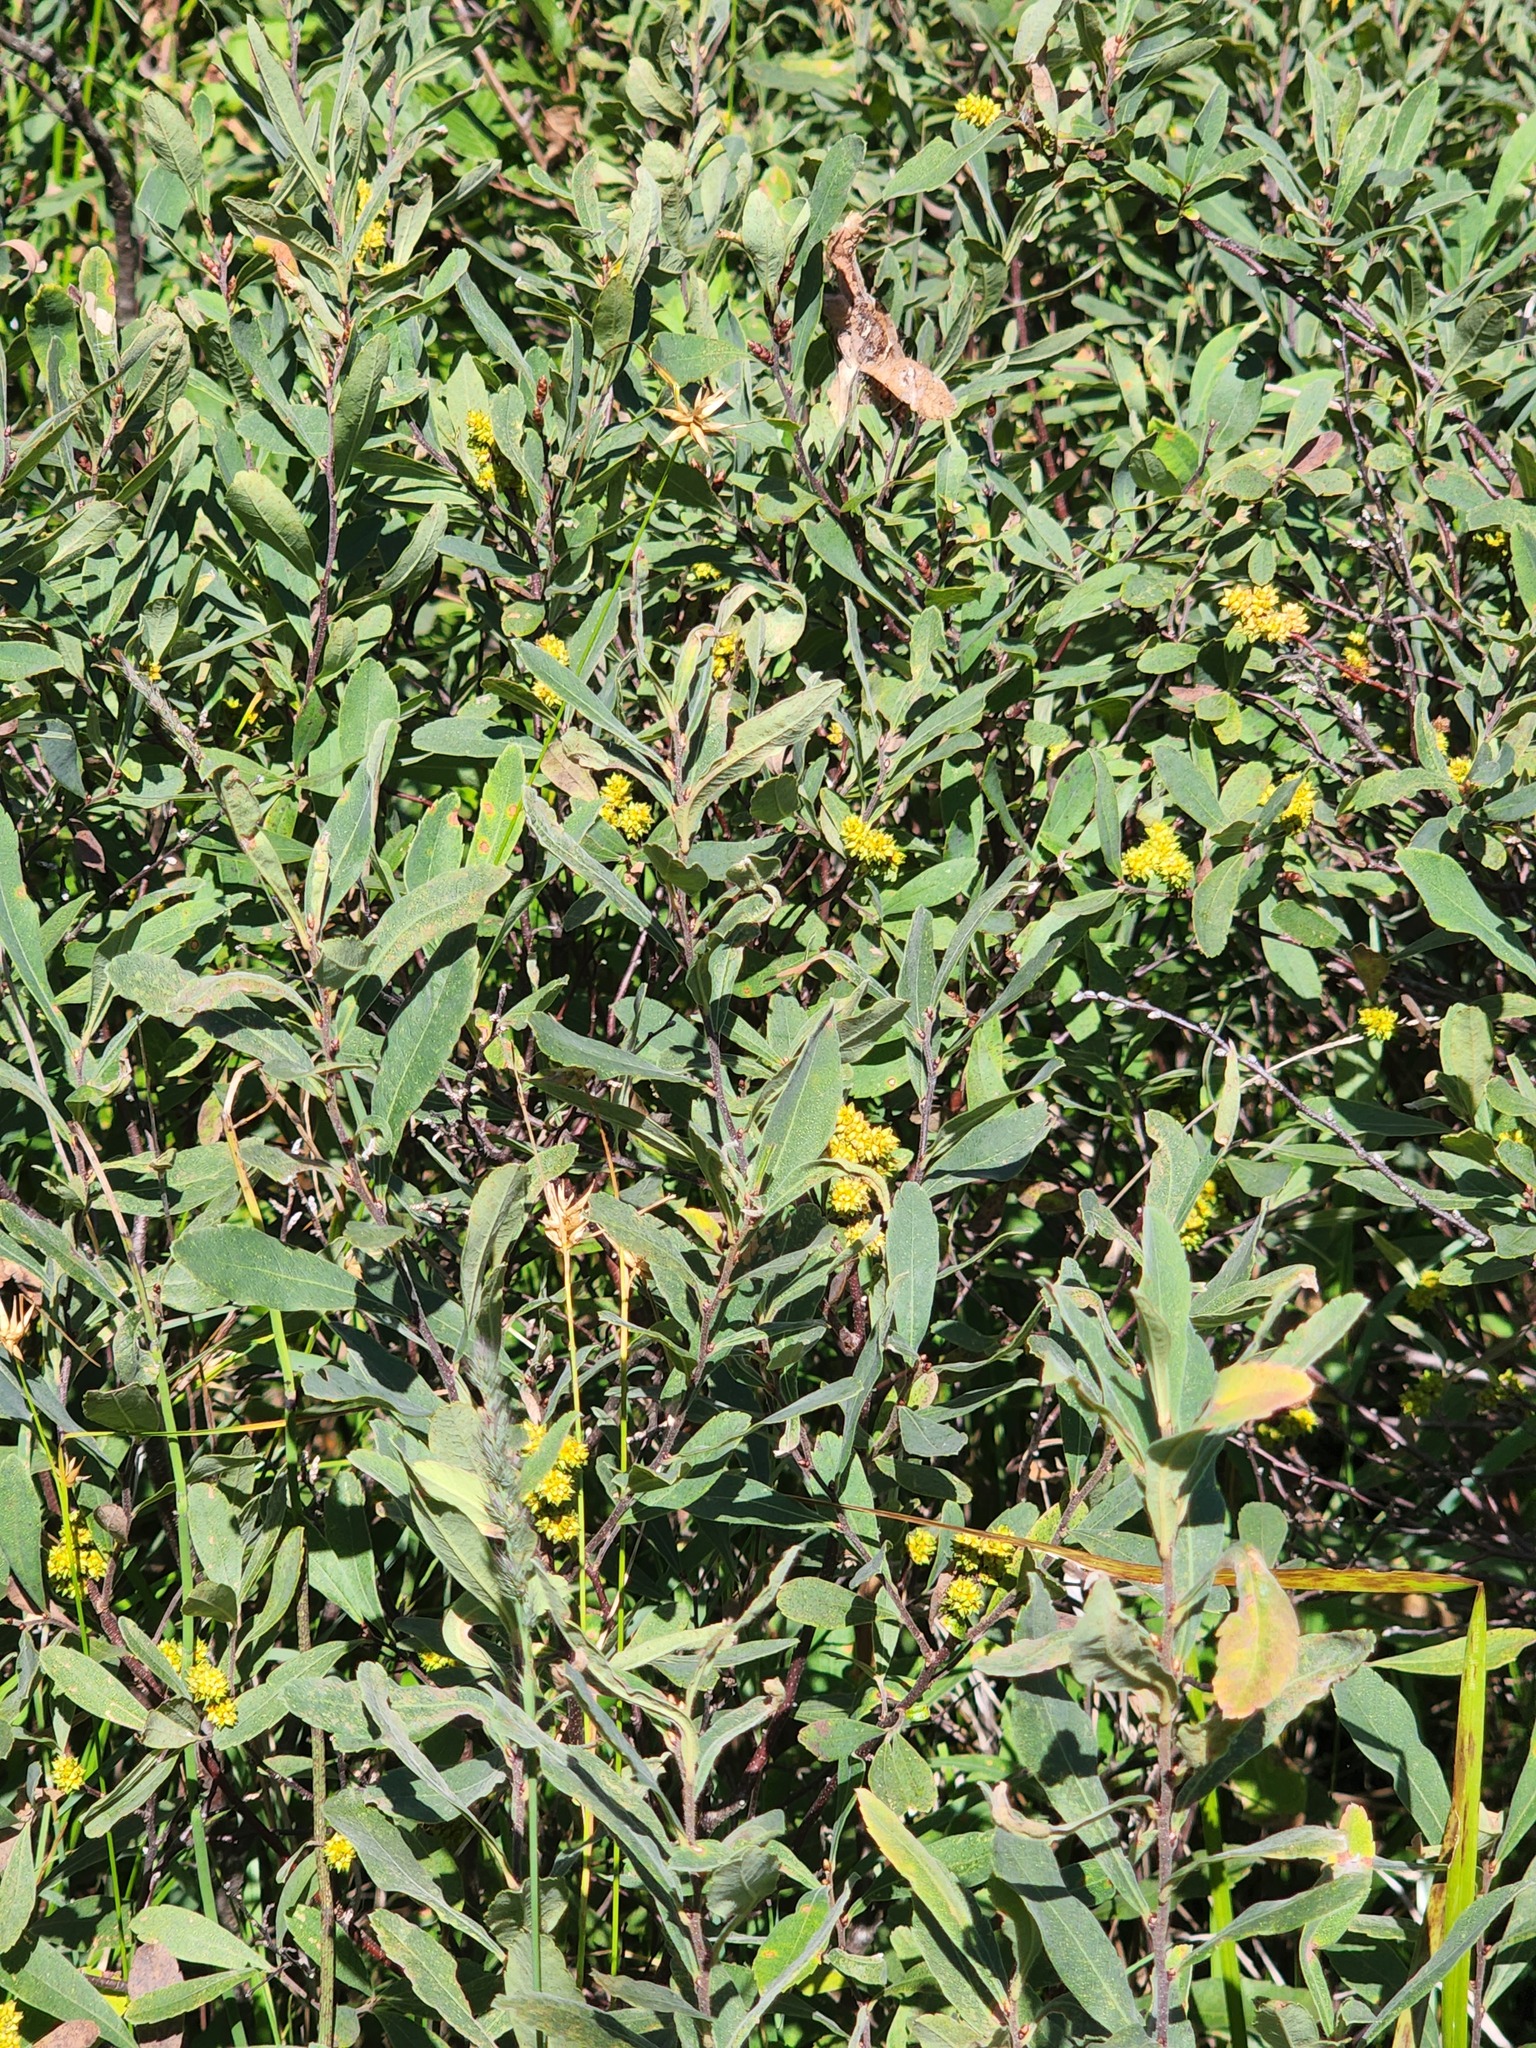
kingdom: Plantae
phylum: Tracheophyta
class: Magnoliopsida
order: Fagales
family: Myricaceae
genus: Myrica
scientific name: Myrica gale
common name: Sweet gale
